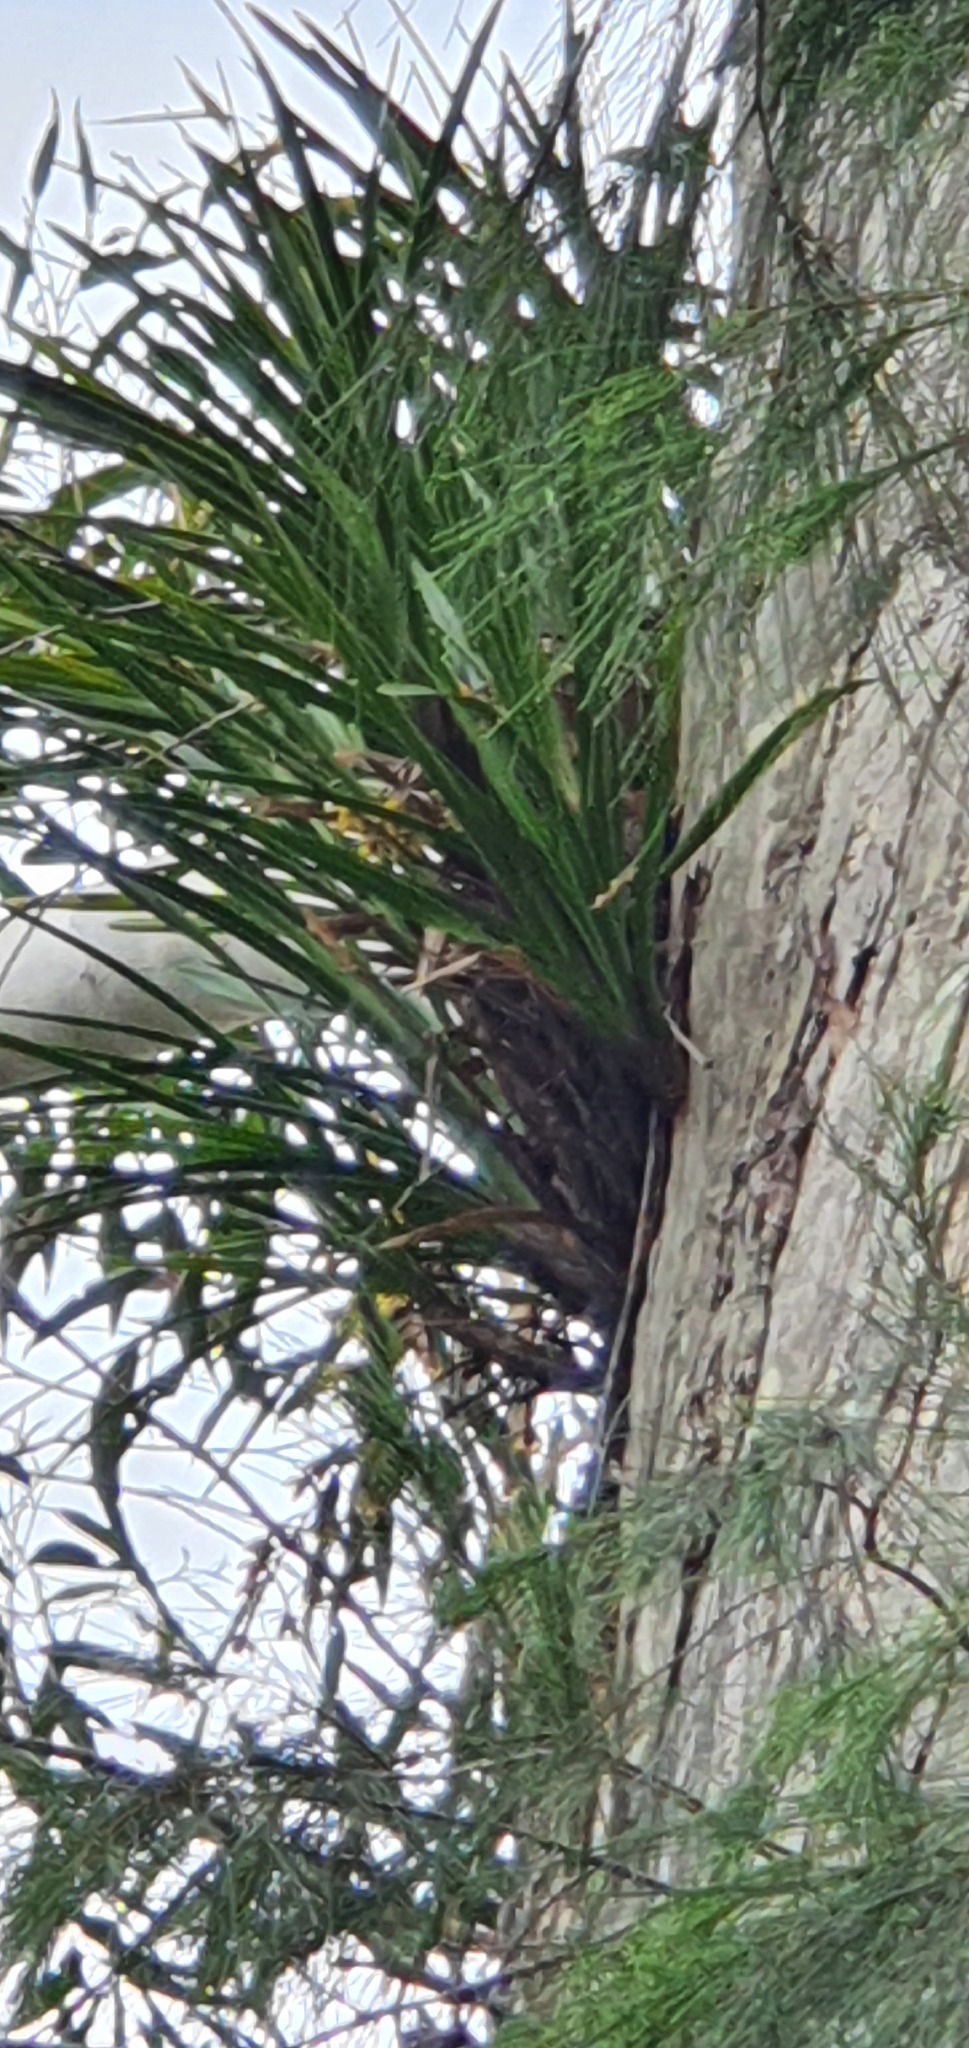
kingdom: Plantae
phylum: Tracheophyta
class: Liliopsida
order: Asparagales
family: Orchidaceae
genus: Cymbidium
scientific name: Cymbidium suave
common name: Snake orchid
